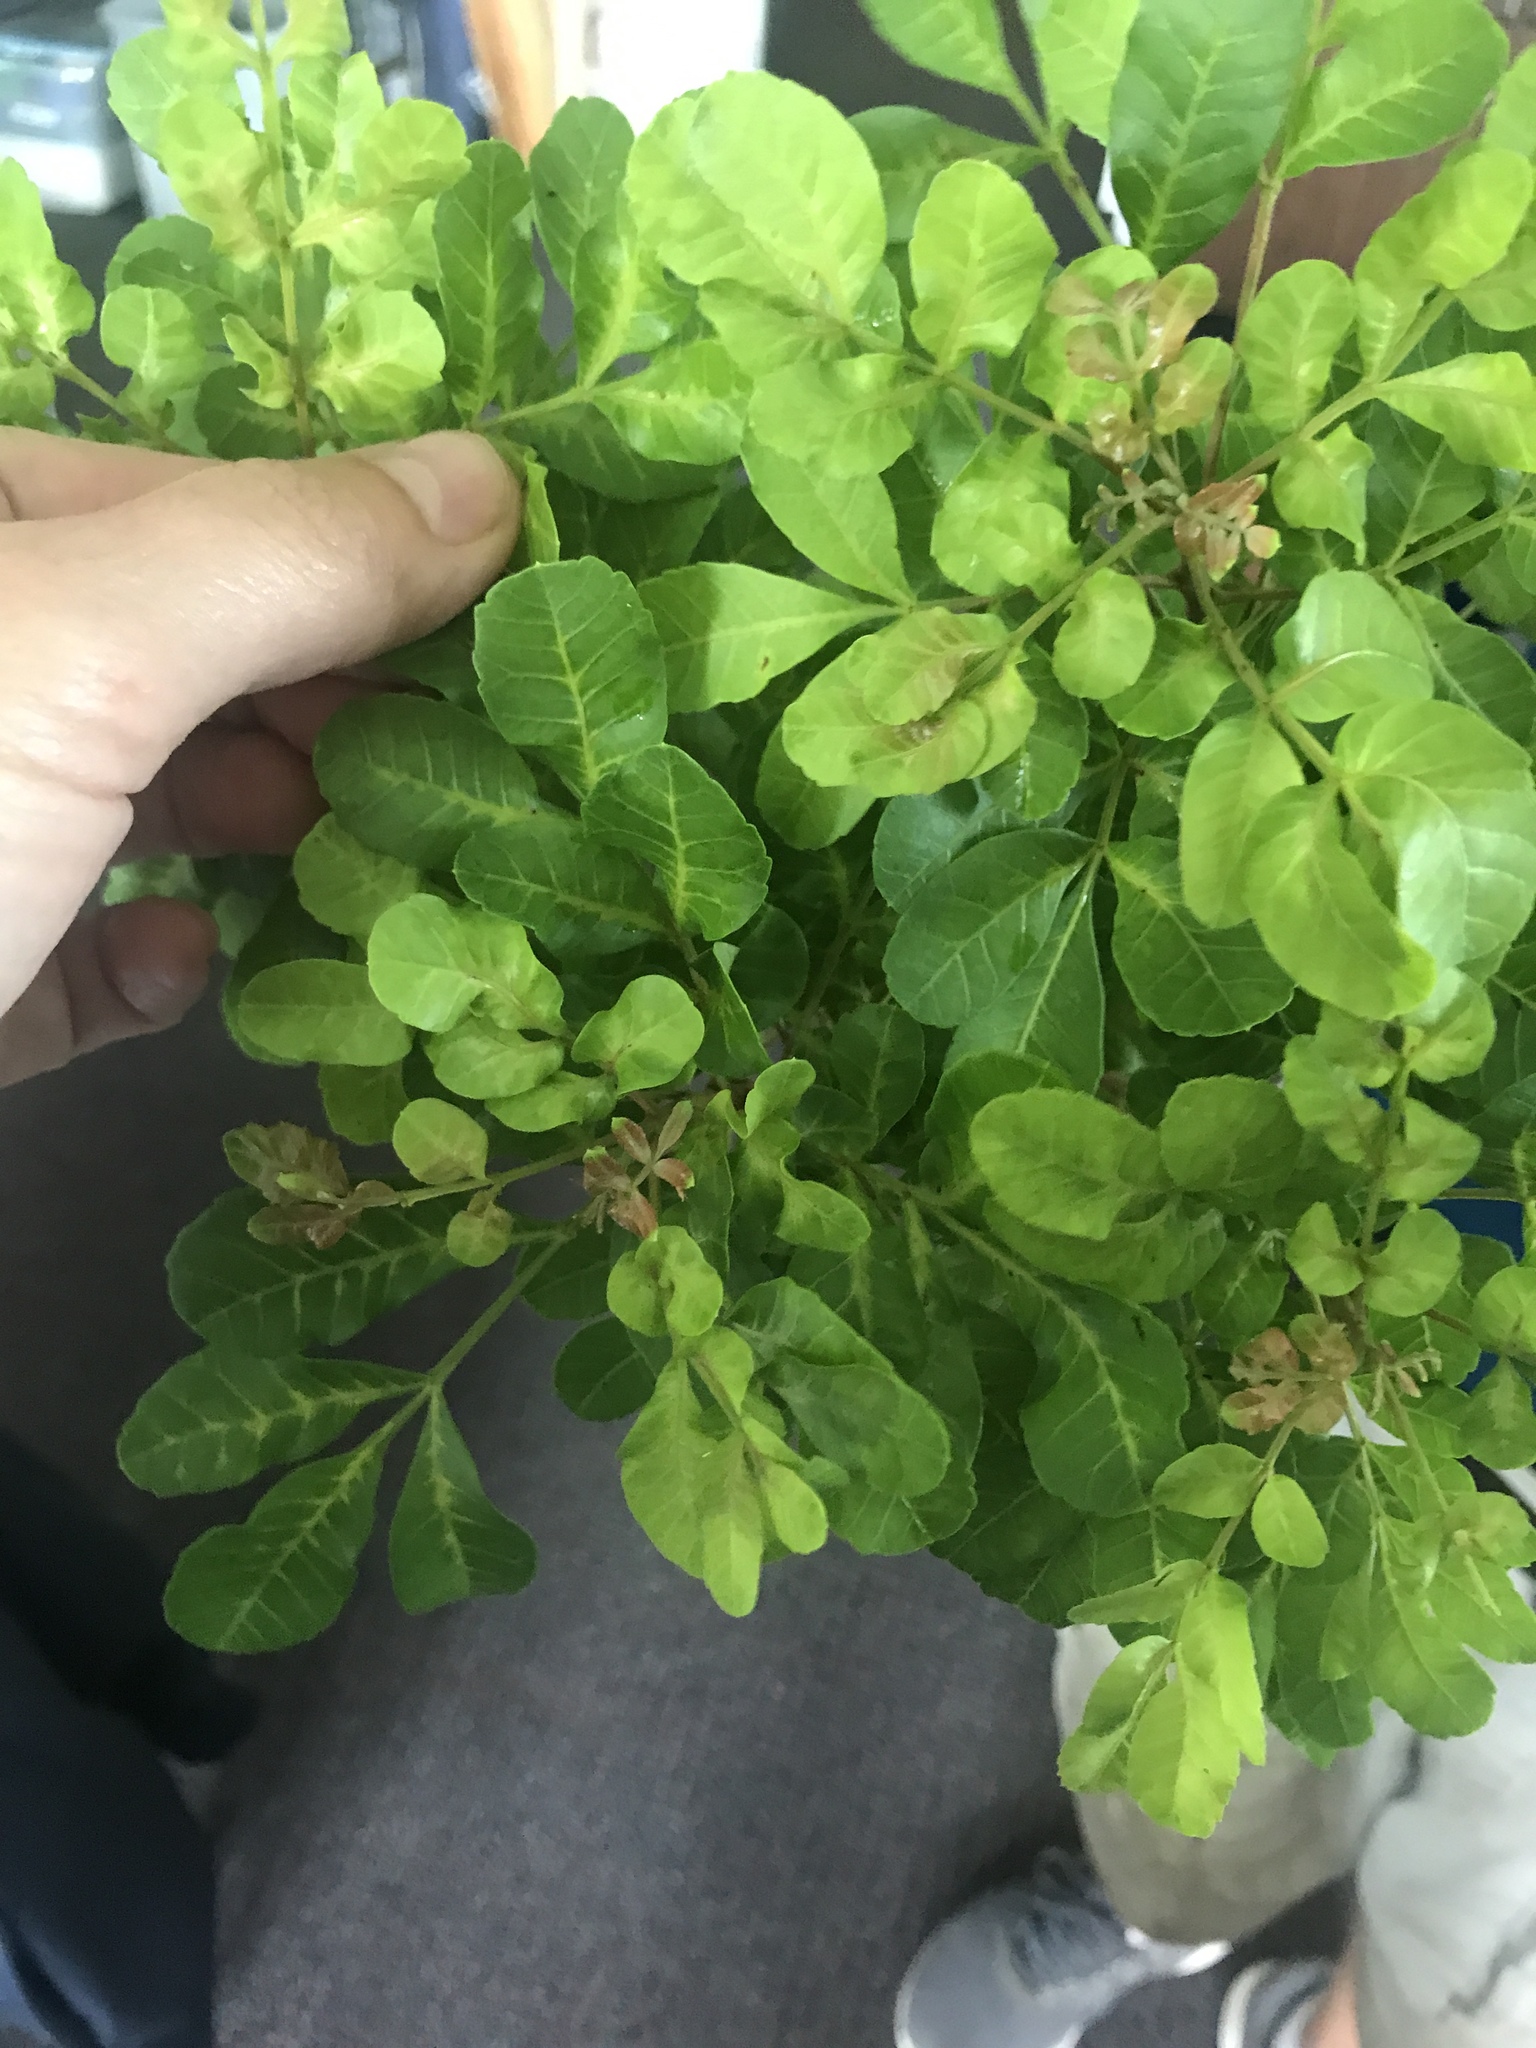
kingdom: Plantae
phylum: Tracheophyta
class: Magnoliopsida
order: Sapindales
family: Anacardiaceae
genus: Schinus
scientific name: Schinus terebinthifolia
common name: Brazilian peppertree
